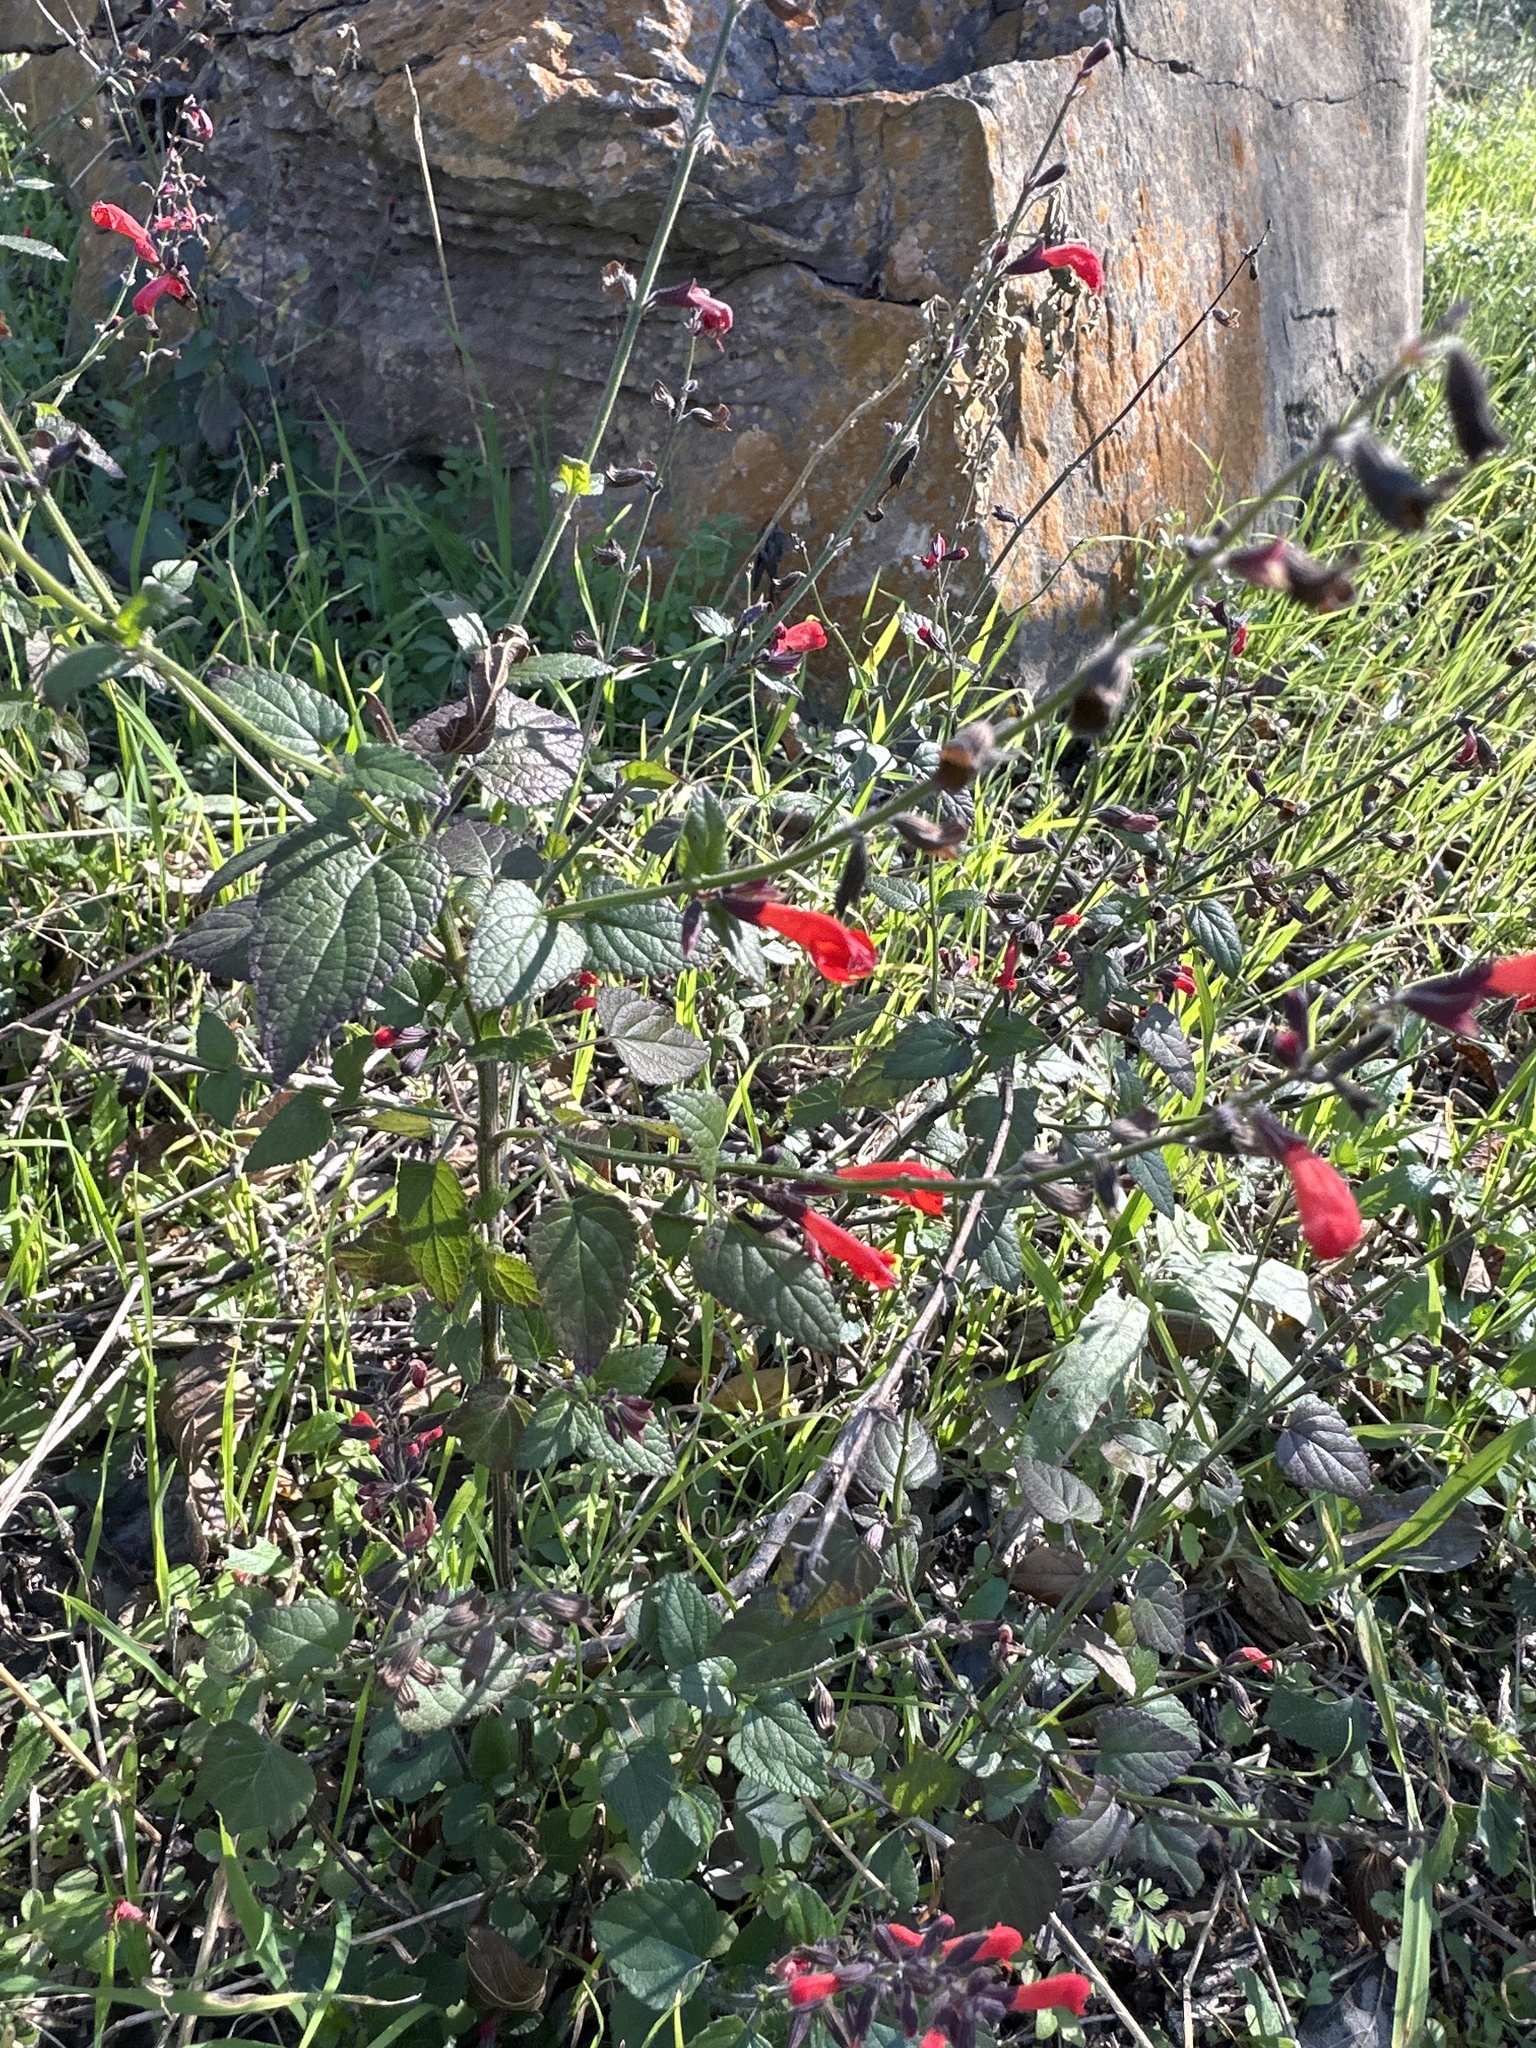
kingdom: Plantae
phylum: Tracheophyta
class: Magnoliopsida
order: Lamiales
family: Lamiaceae
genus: Salvia
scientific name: Salvia coccinea
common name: Blood sage
